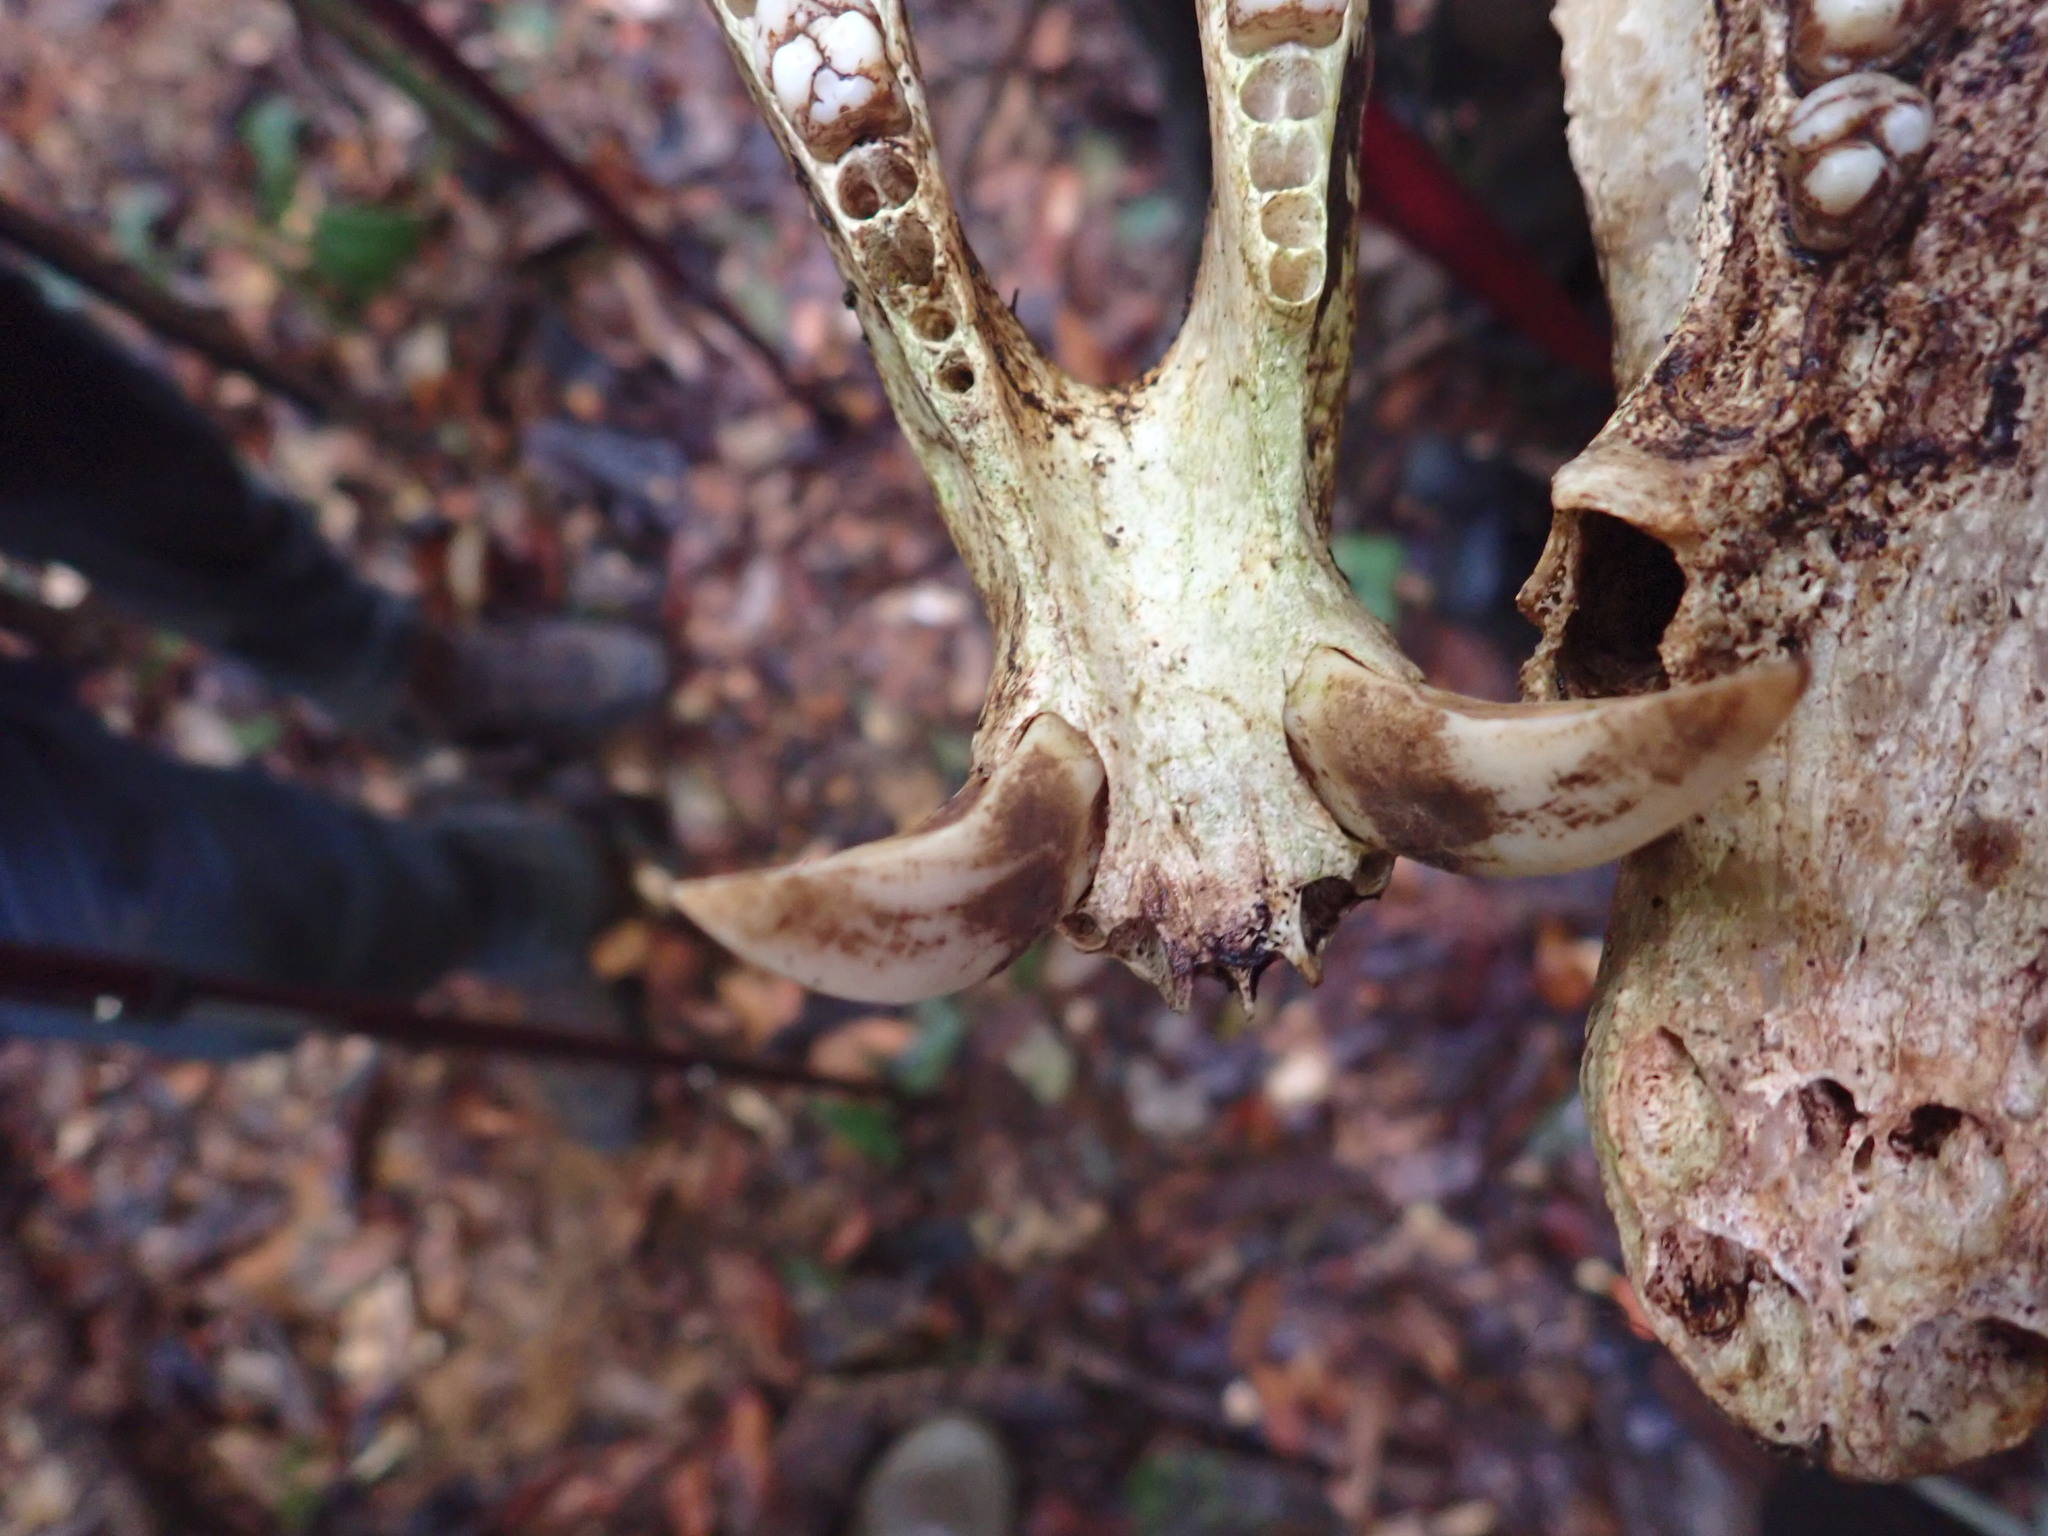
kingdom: Animalia
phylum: Chordata
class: Mammalia
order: Artiodactyla
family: Tayassuidae
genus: Pecari
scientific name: Pecari tajacu
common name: Collared peccary
